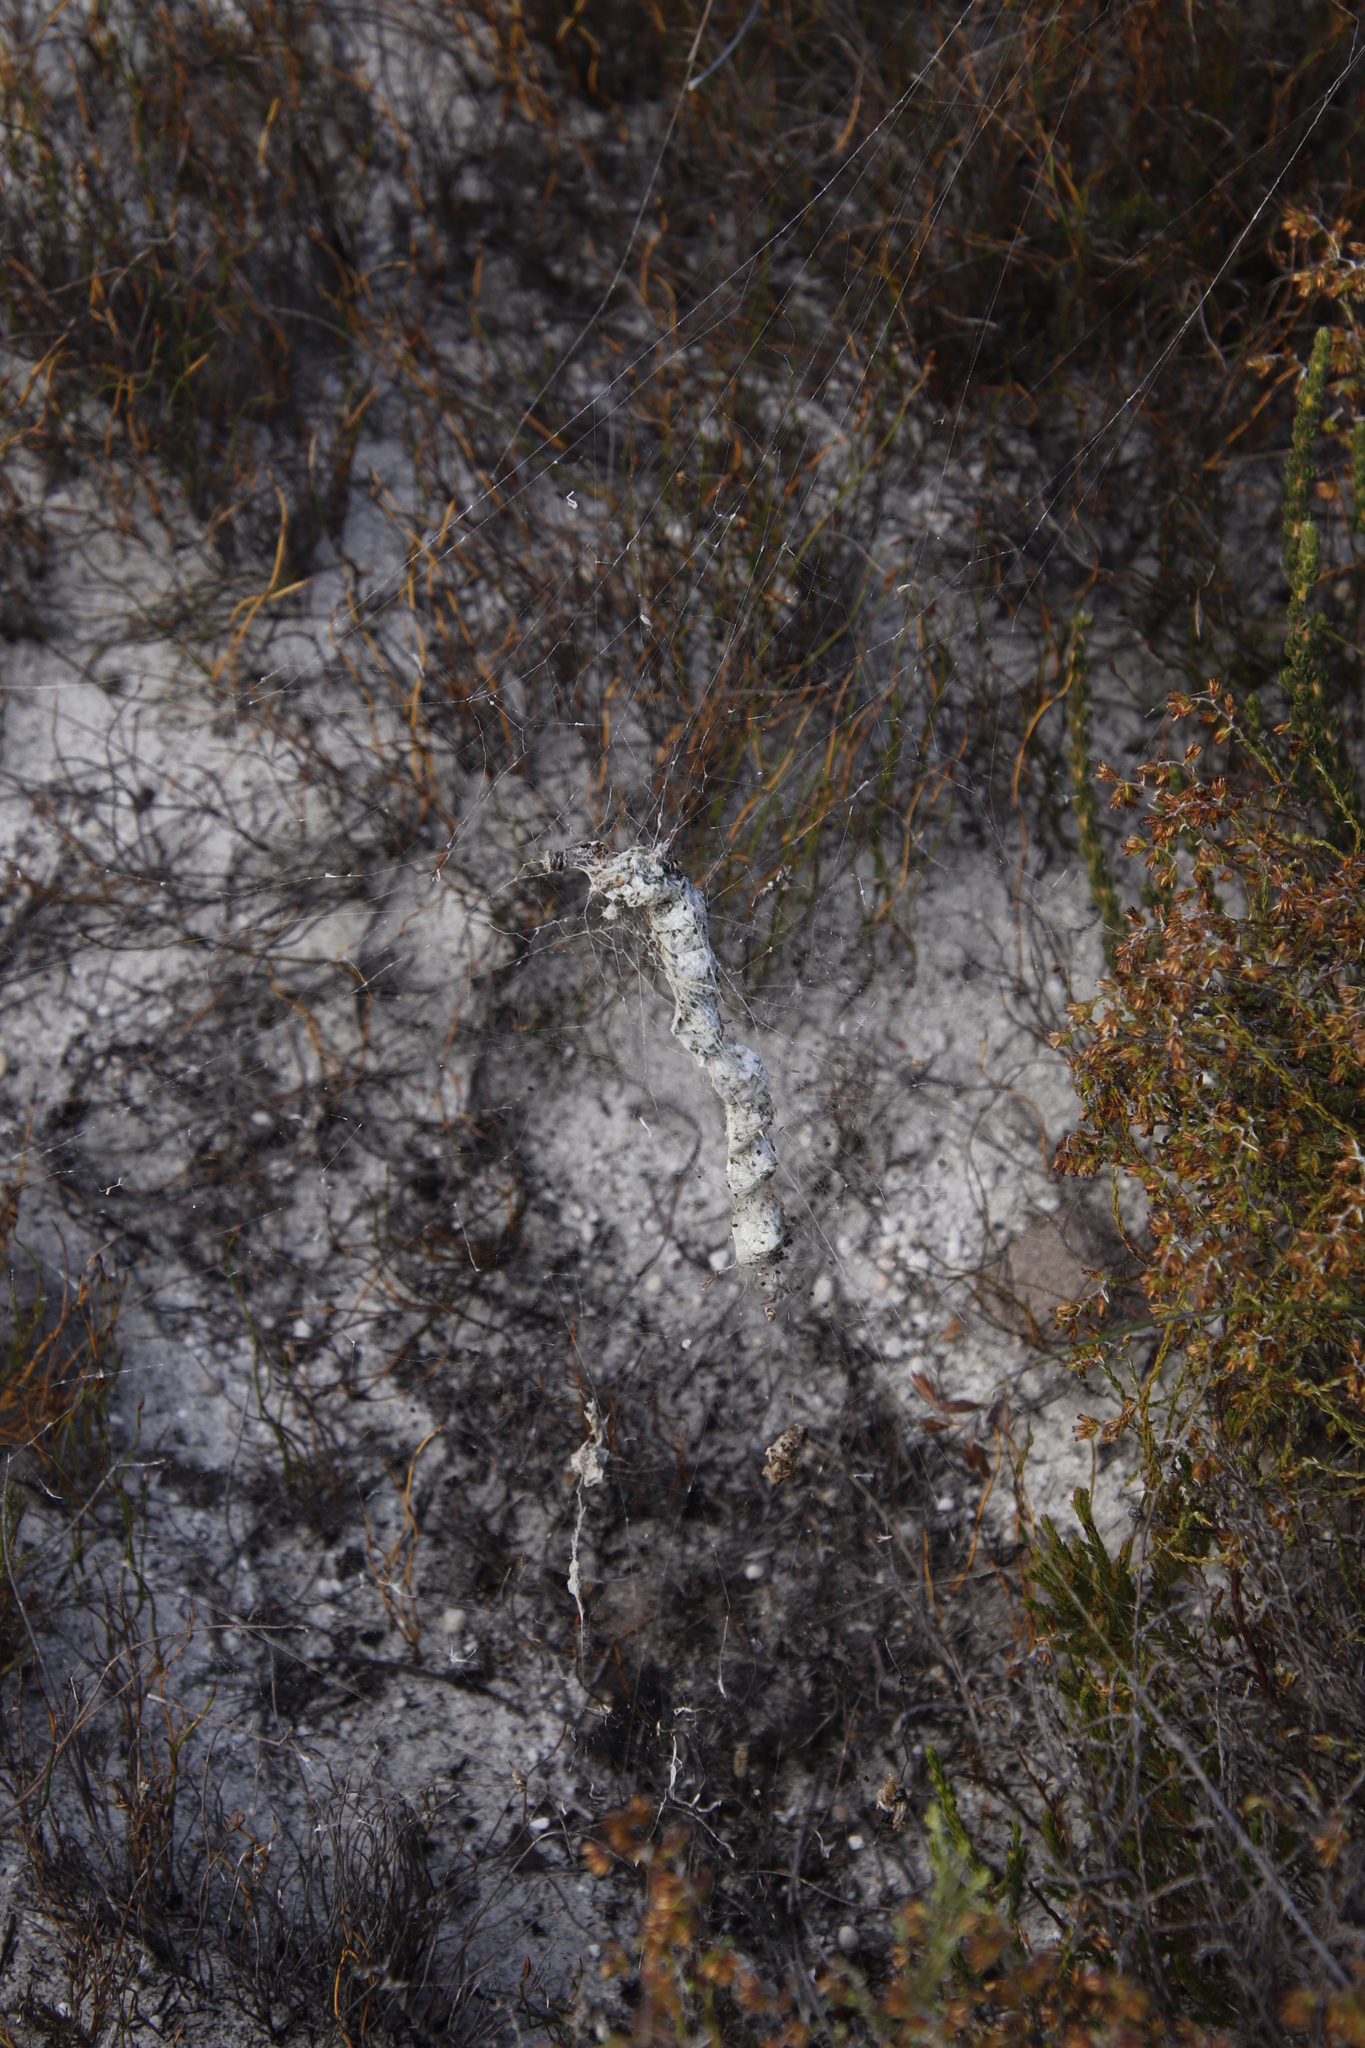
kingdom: Animalia
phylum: Arthropoda
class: Arachnida
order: Araneae
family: Araneidae
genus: Cyrtophora
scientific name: Cyrtophora citricola
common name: Orb weavers
